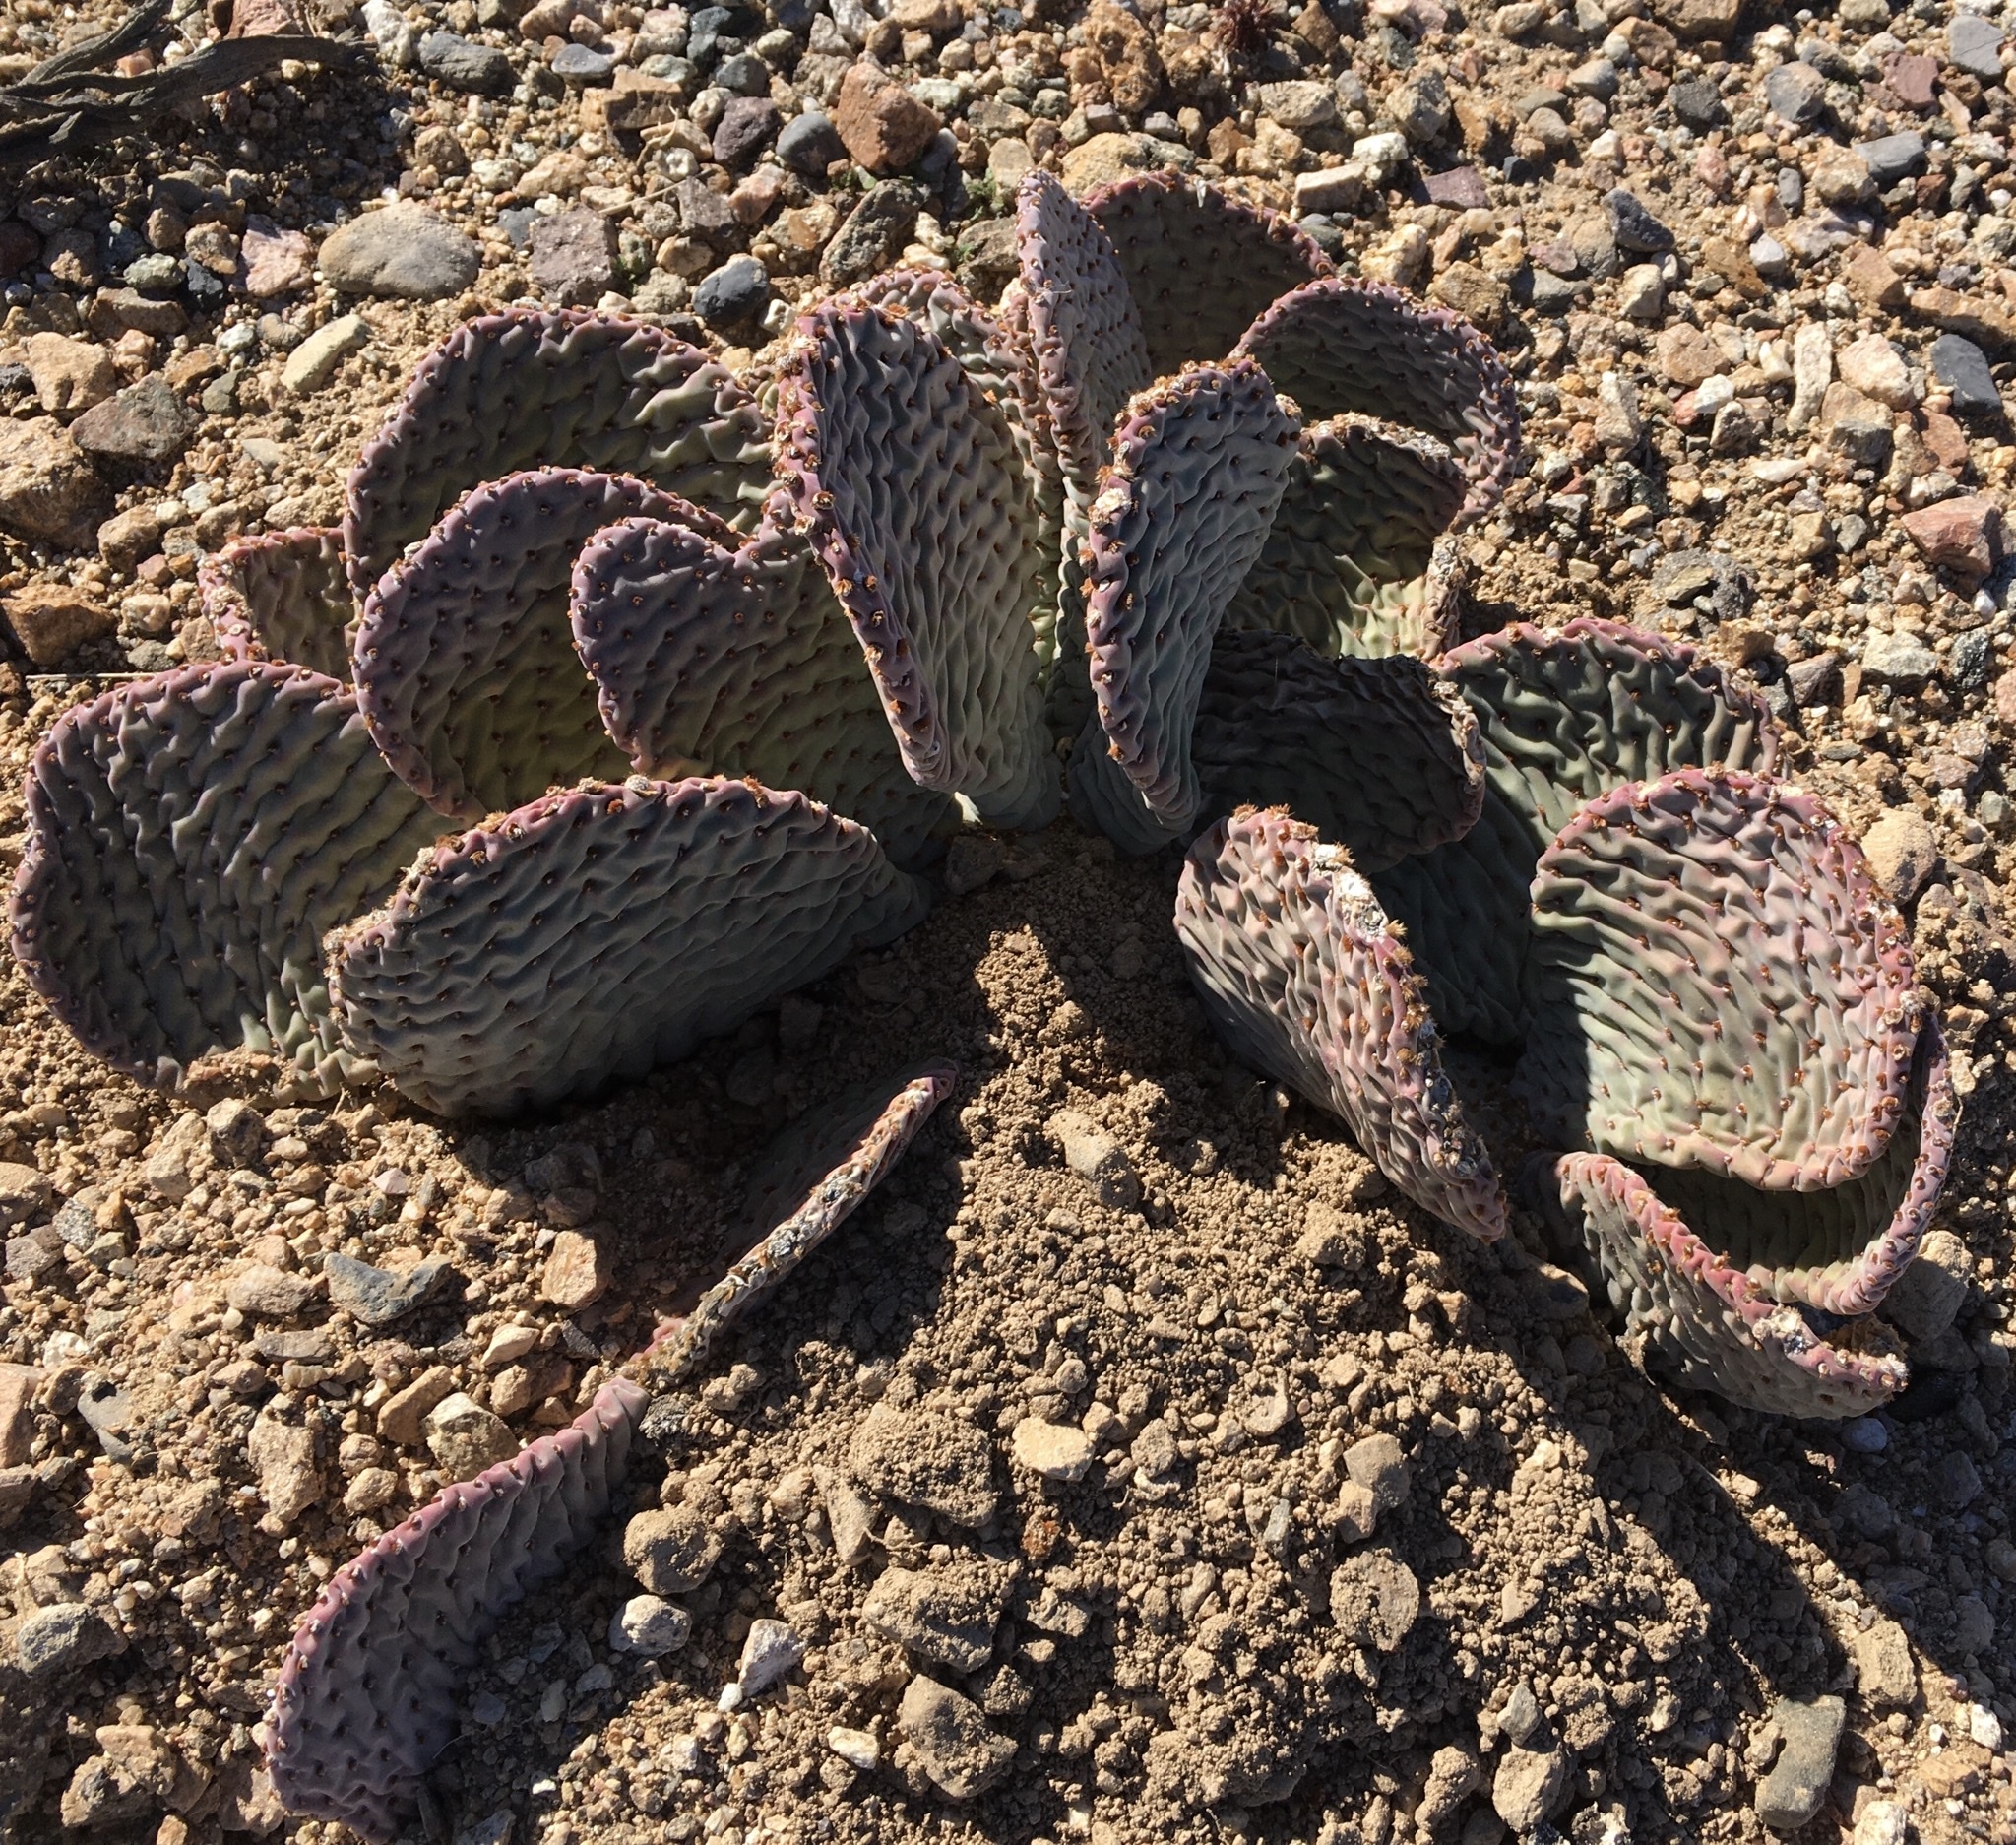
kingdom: Plantae
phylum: Tracheophyta
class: Magnoliopsida
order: Caryophyllales
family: Cactaceae
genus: Opuntia
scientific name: Opuntia basilaris
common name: Beavertail prickly-pear
